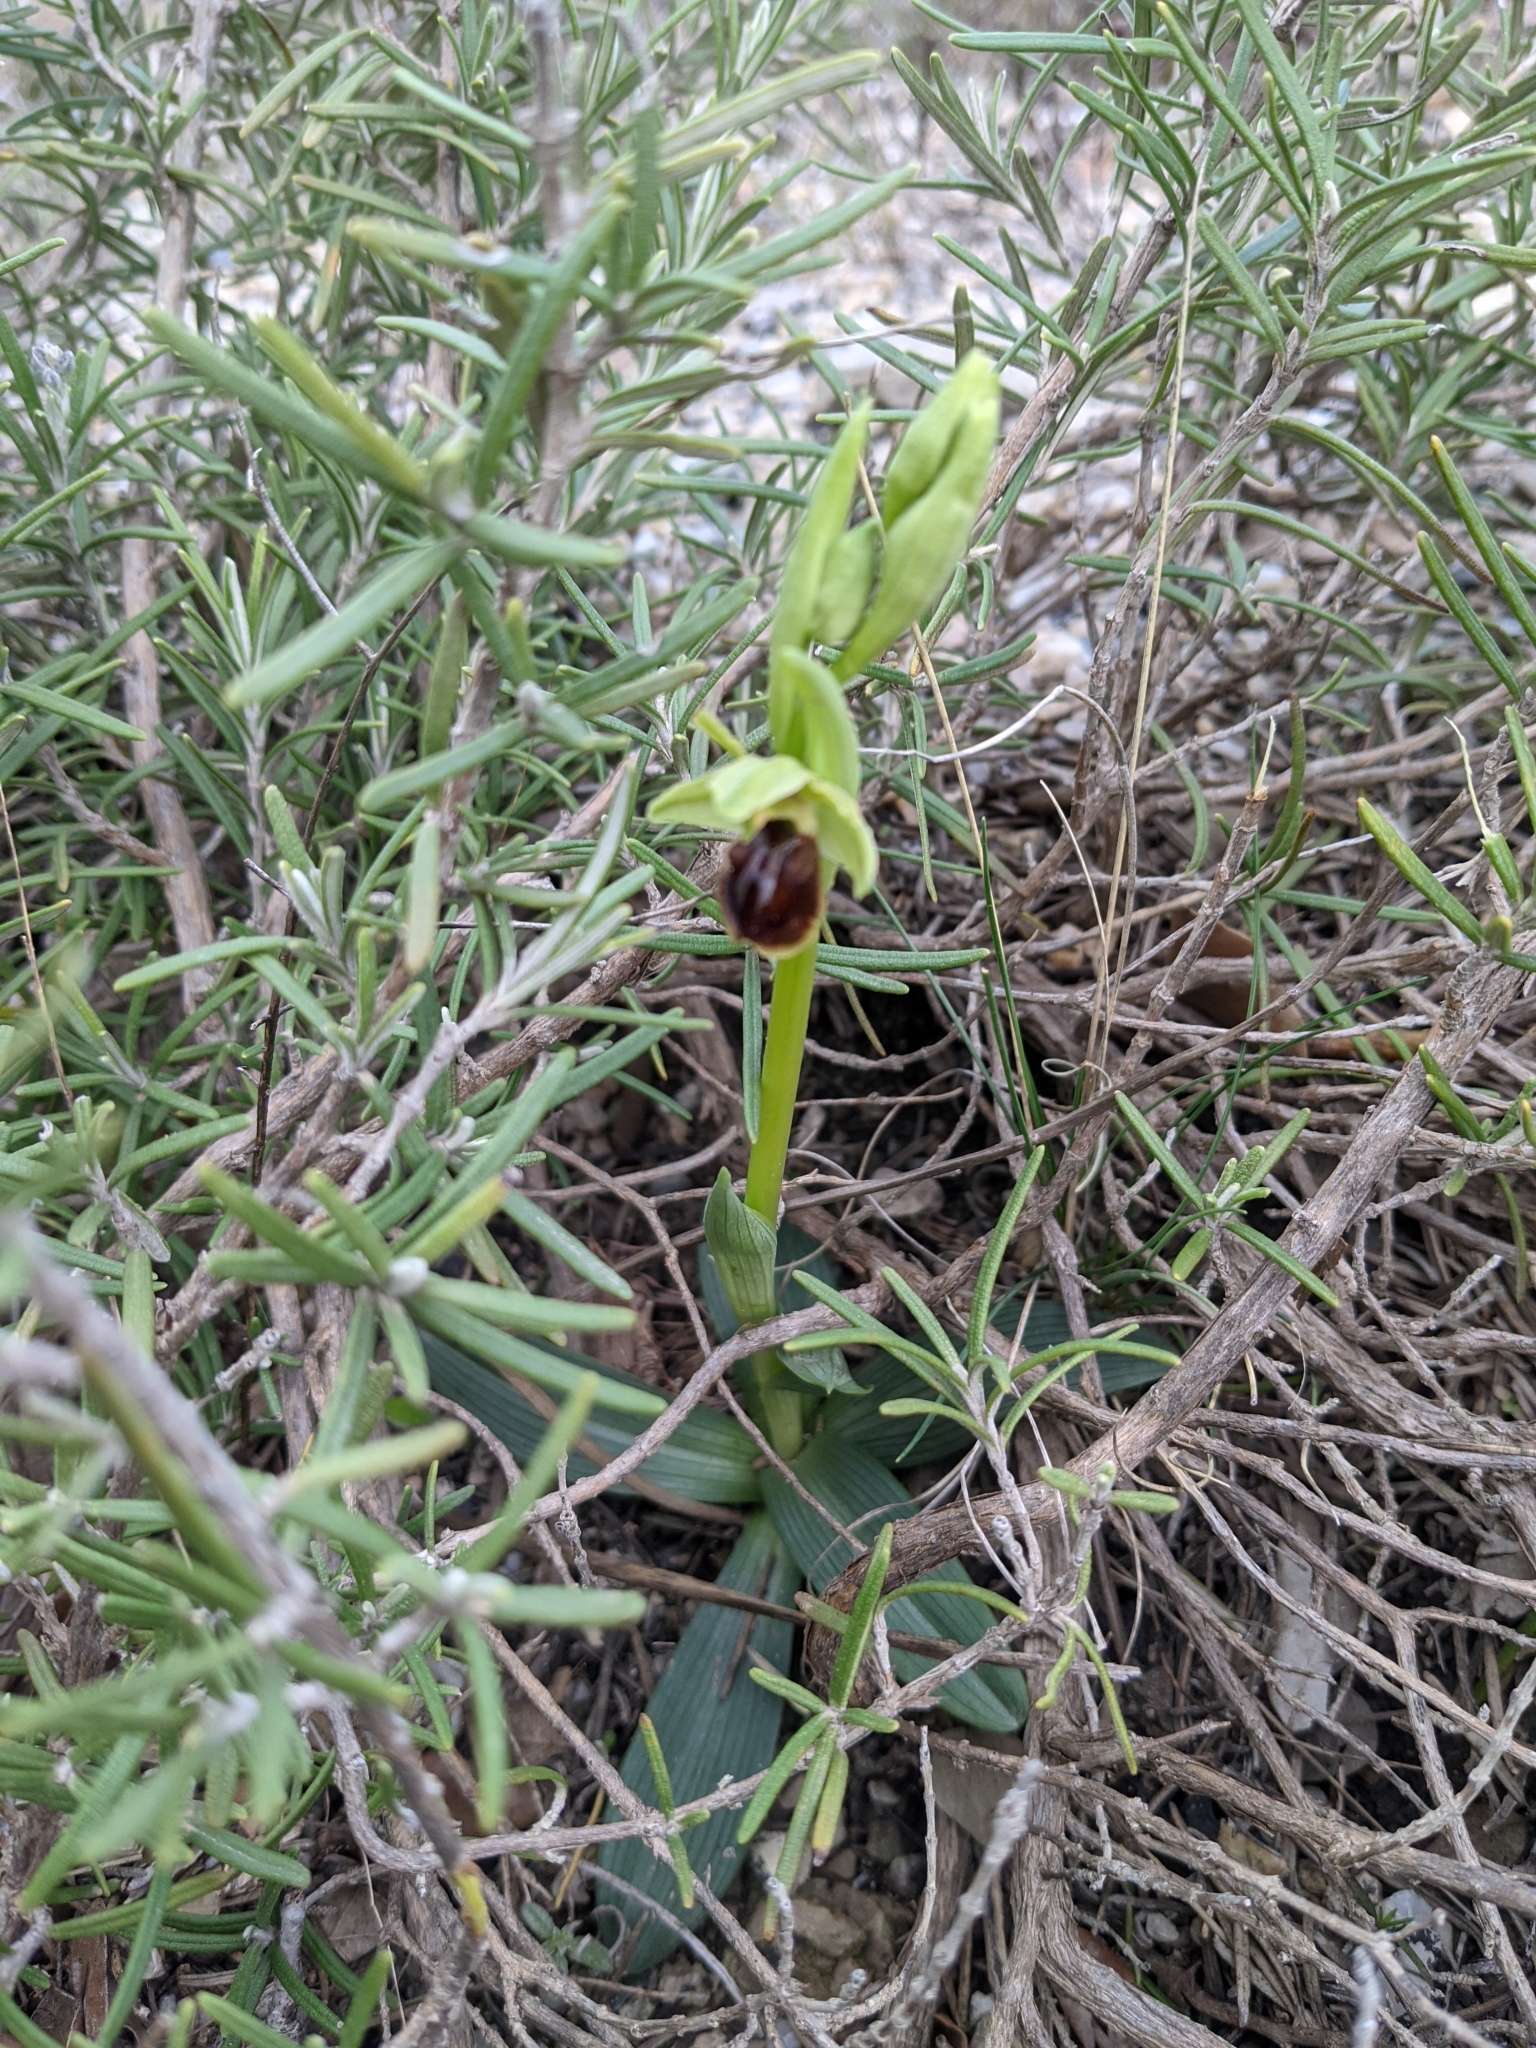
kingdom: Plantae
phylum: Tracheophyta
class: Liliopsida
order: Asparagales
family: Orchidaceae
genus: Ophrys
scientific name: Ophrys sphegodes
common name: Early spider-orchid
